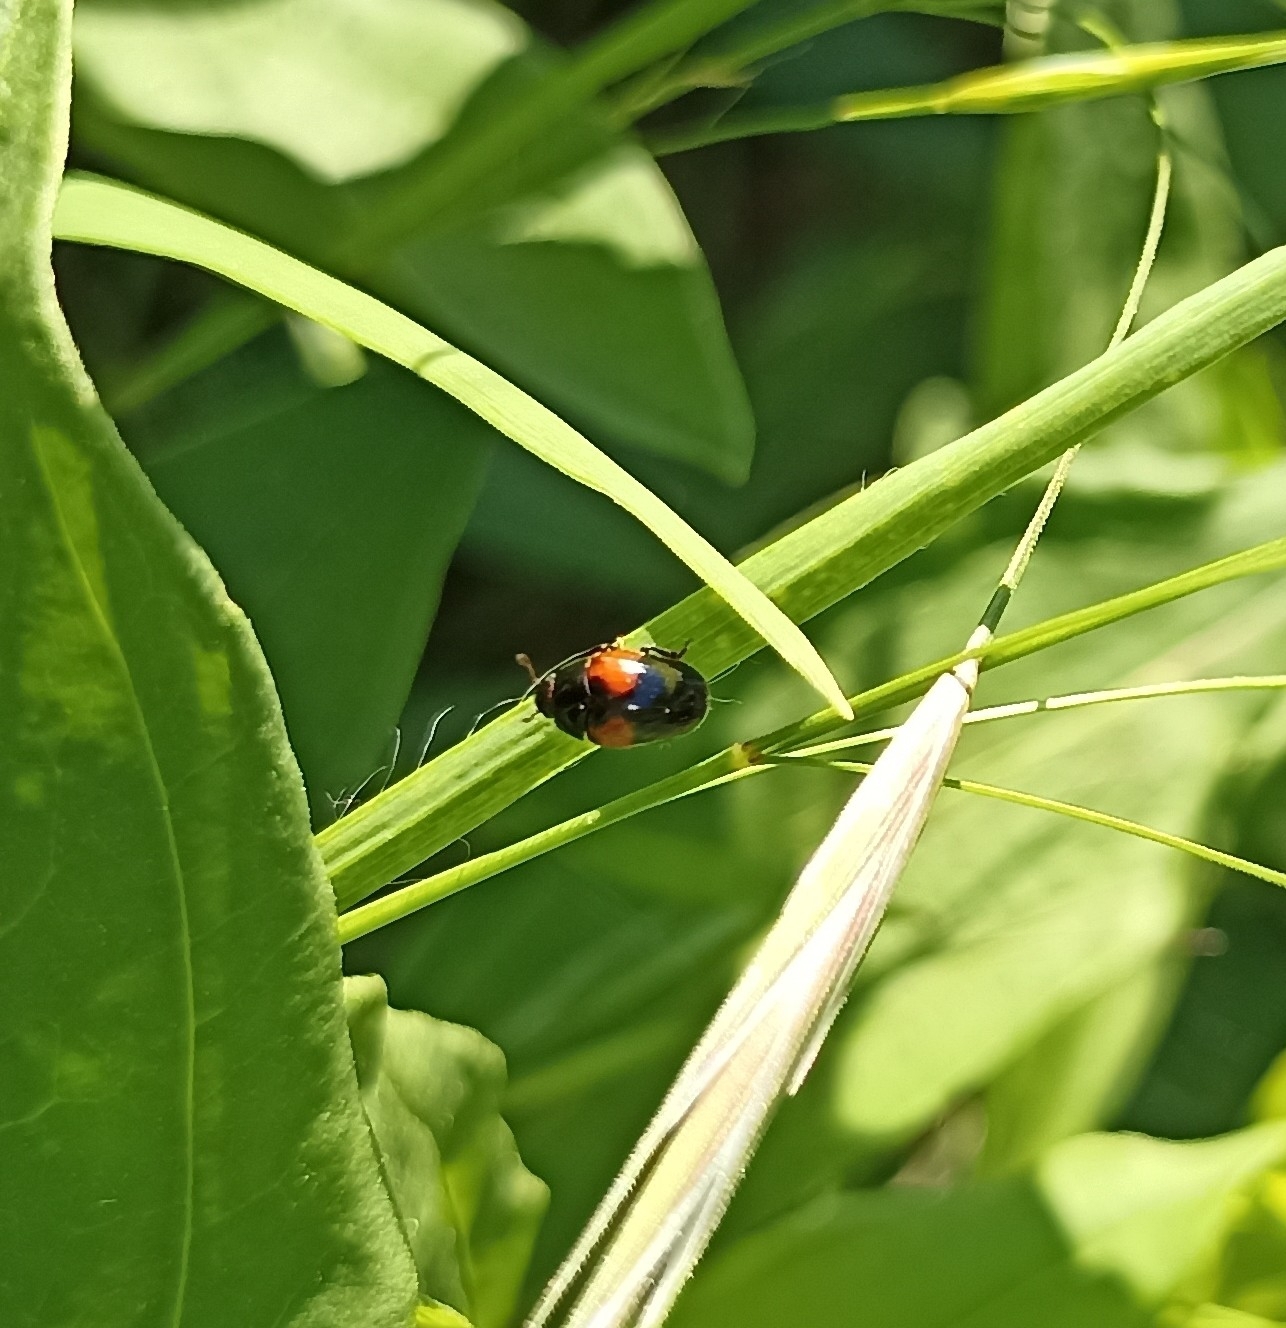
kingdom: Animalia
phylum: Arthropoda
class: Insecta
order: Coleoptera
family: Erotylidae
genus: Tritoma
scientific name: Tritoma bipustulata
